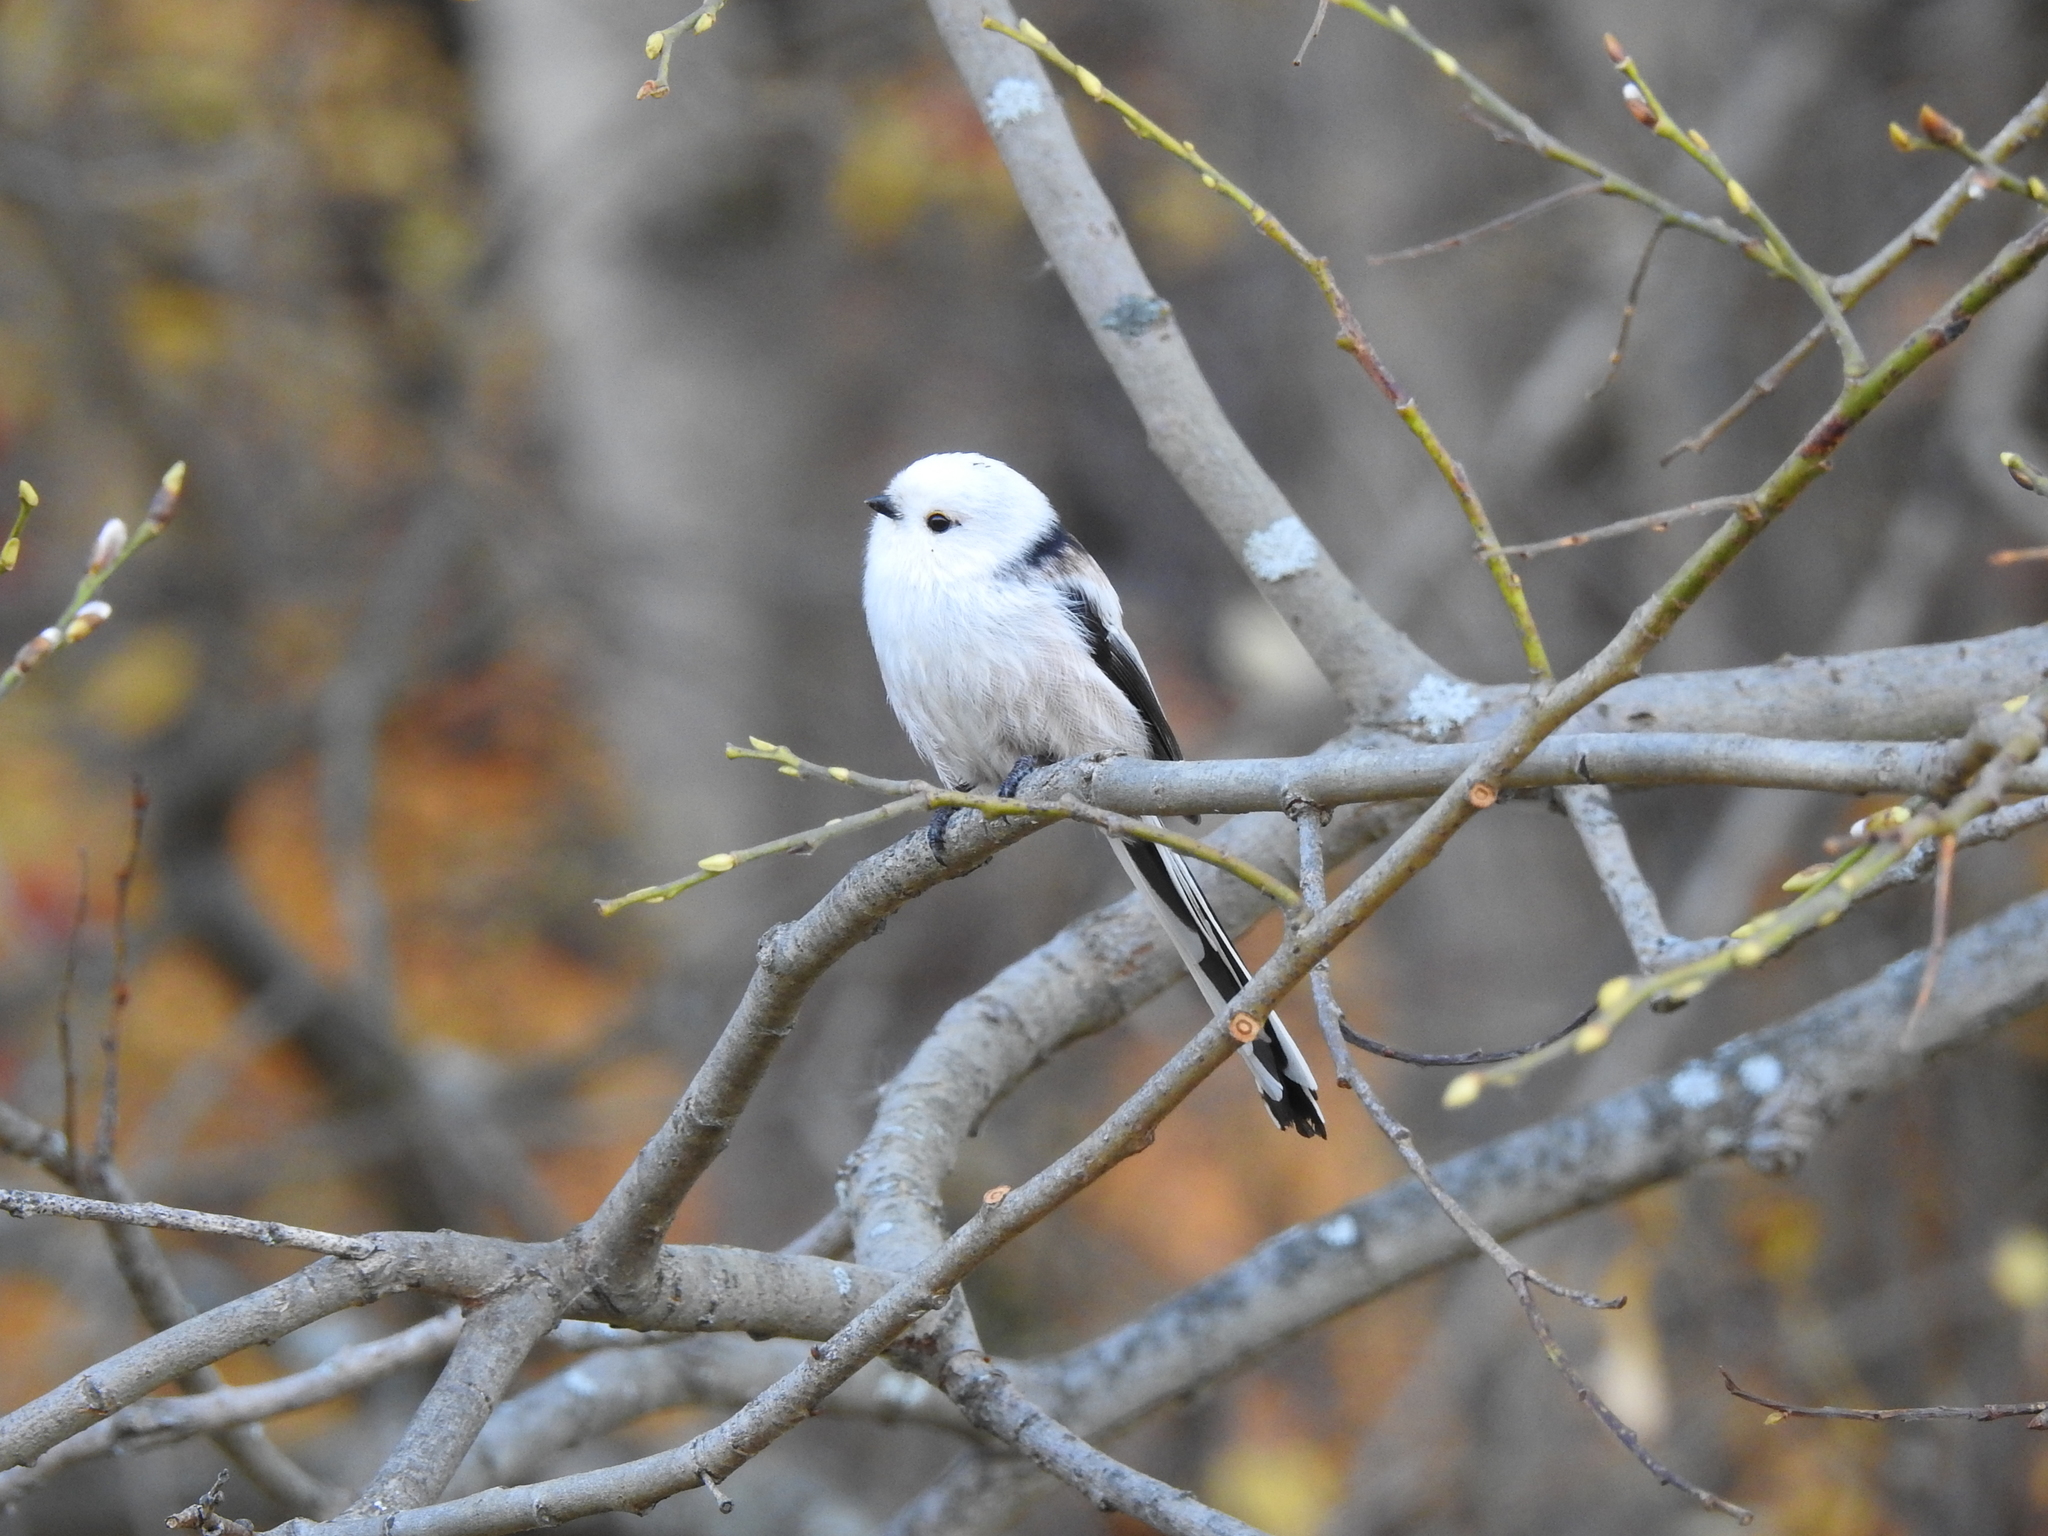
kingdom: Animalia
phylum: Chordata
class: Aves
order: Passeriformes
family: Aegithalidae
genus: Aegithalos
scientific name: Aegithalos caudatus
